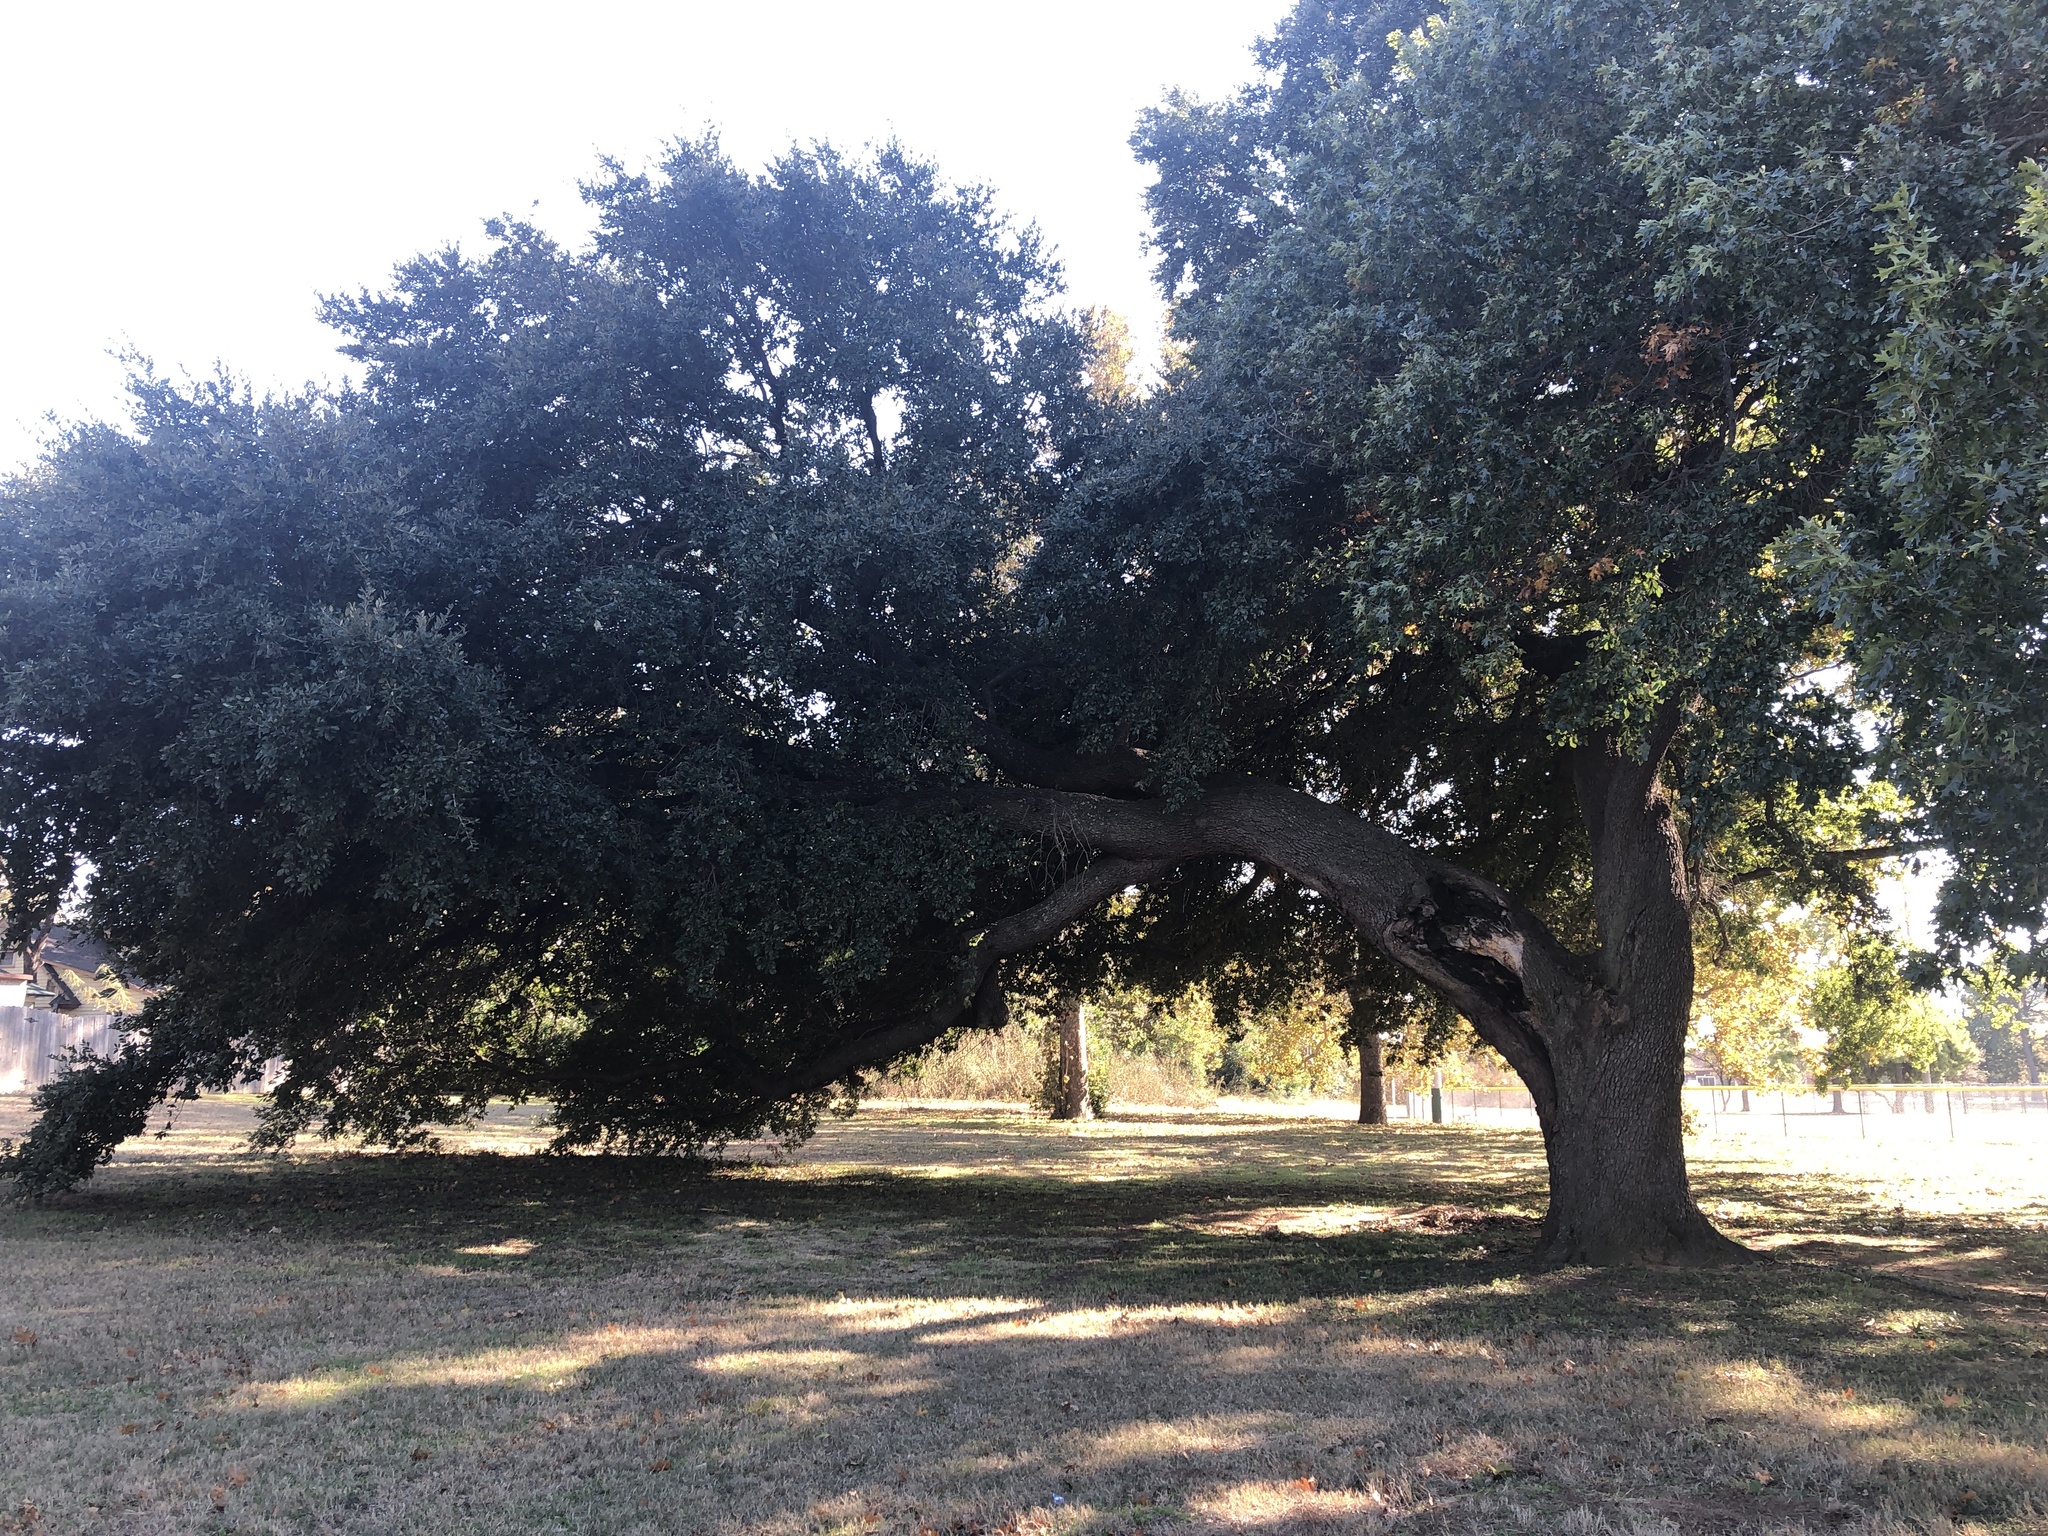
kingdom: Plantae
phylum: Tracheophyta
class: Magnoliopsida
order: Fagales
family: Fagaceae
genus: Quercus
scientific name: Quercus virginiana
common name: Southern live oak
